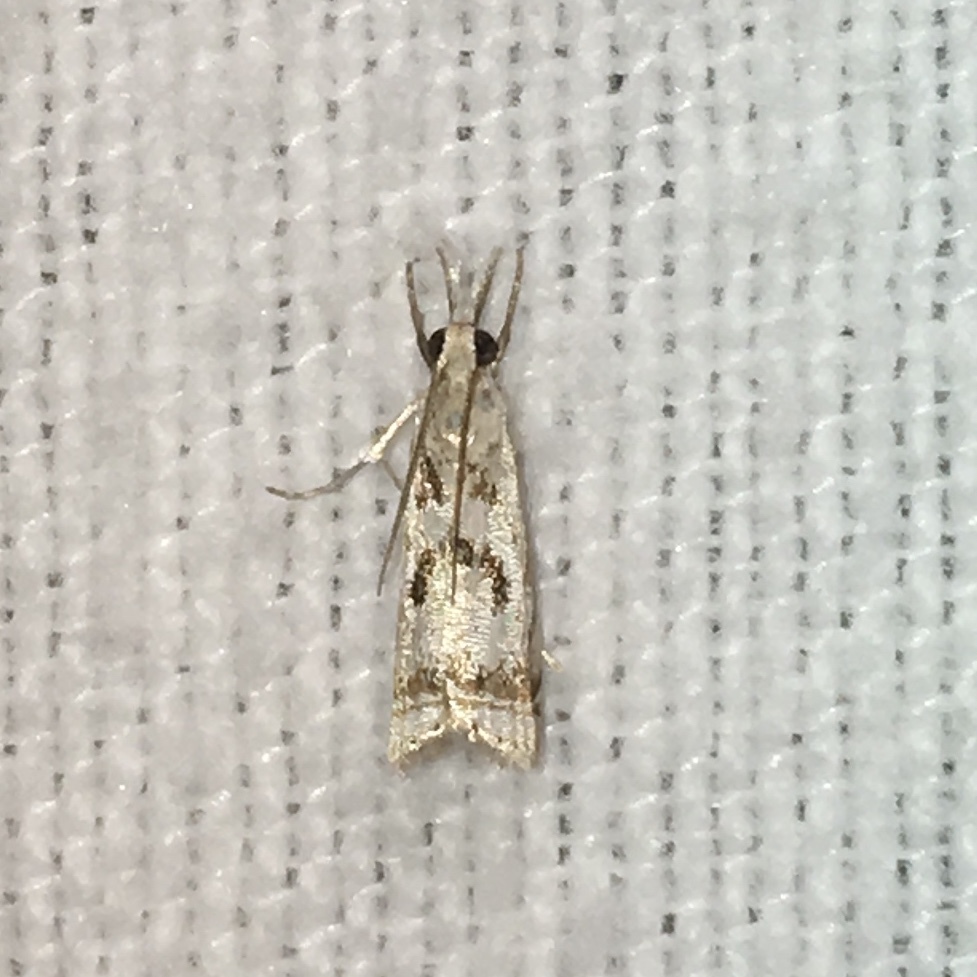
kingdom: Animalia
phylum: Arthropoda
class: Insecta
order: Lepidoptera
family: Crambidae
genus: Microcrambus
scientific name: Microcrambus elegans
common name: Elegant grass-veneer
